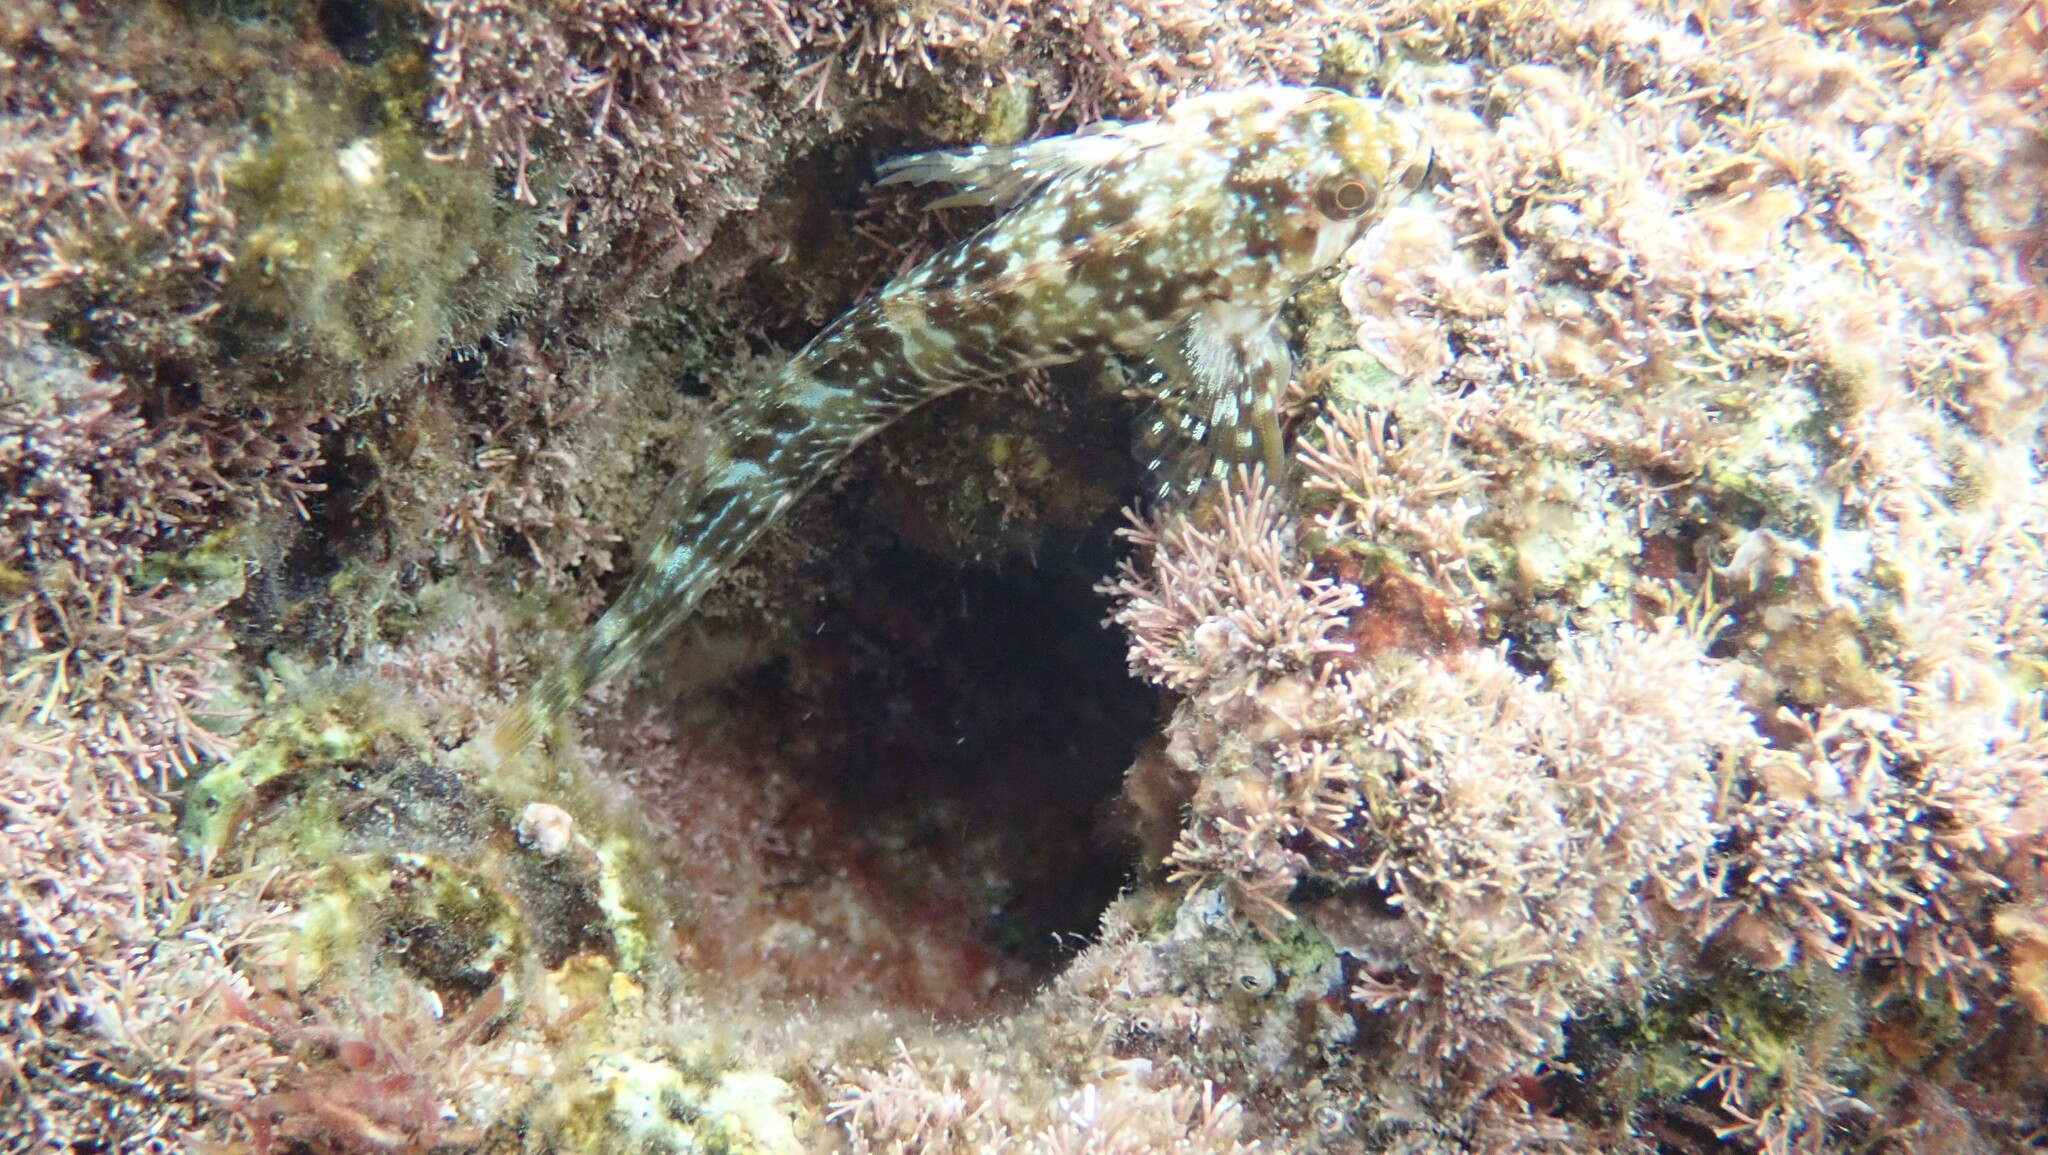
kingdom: Animalia
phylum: Chordata
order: Perciformes
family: Blenniidae
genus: Scartella
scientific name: Scartella cristata
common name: Molly miller
